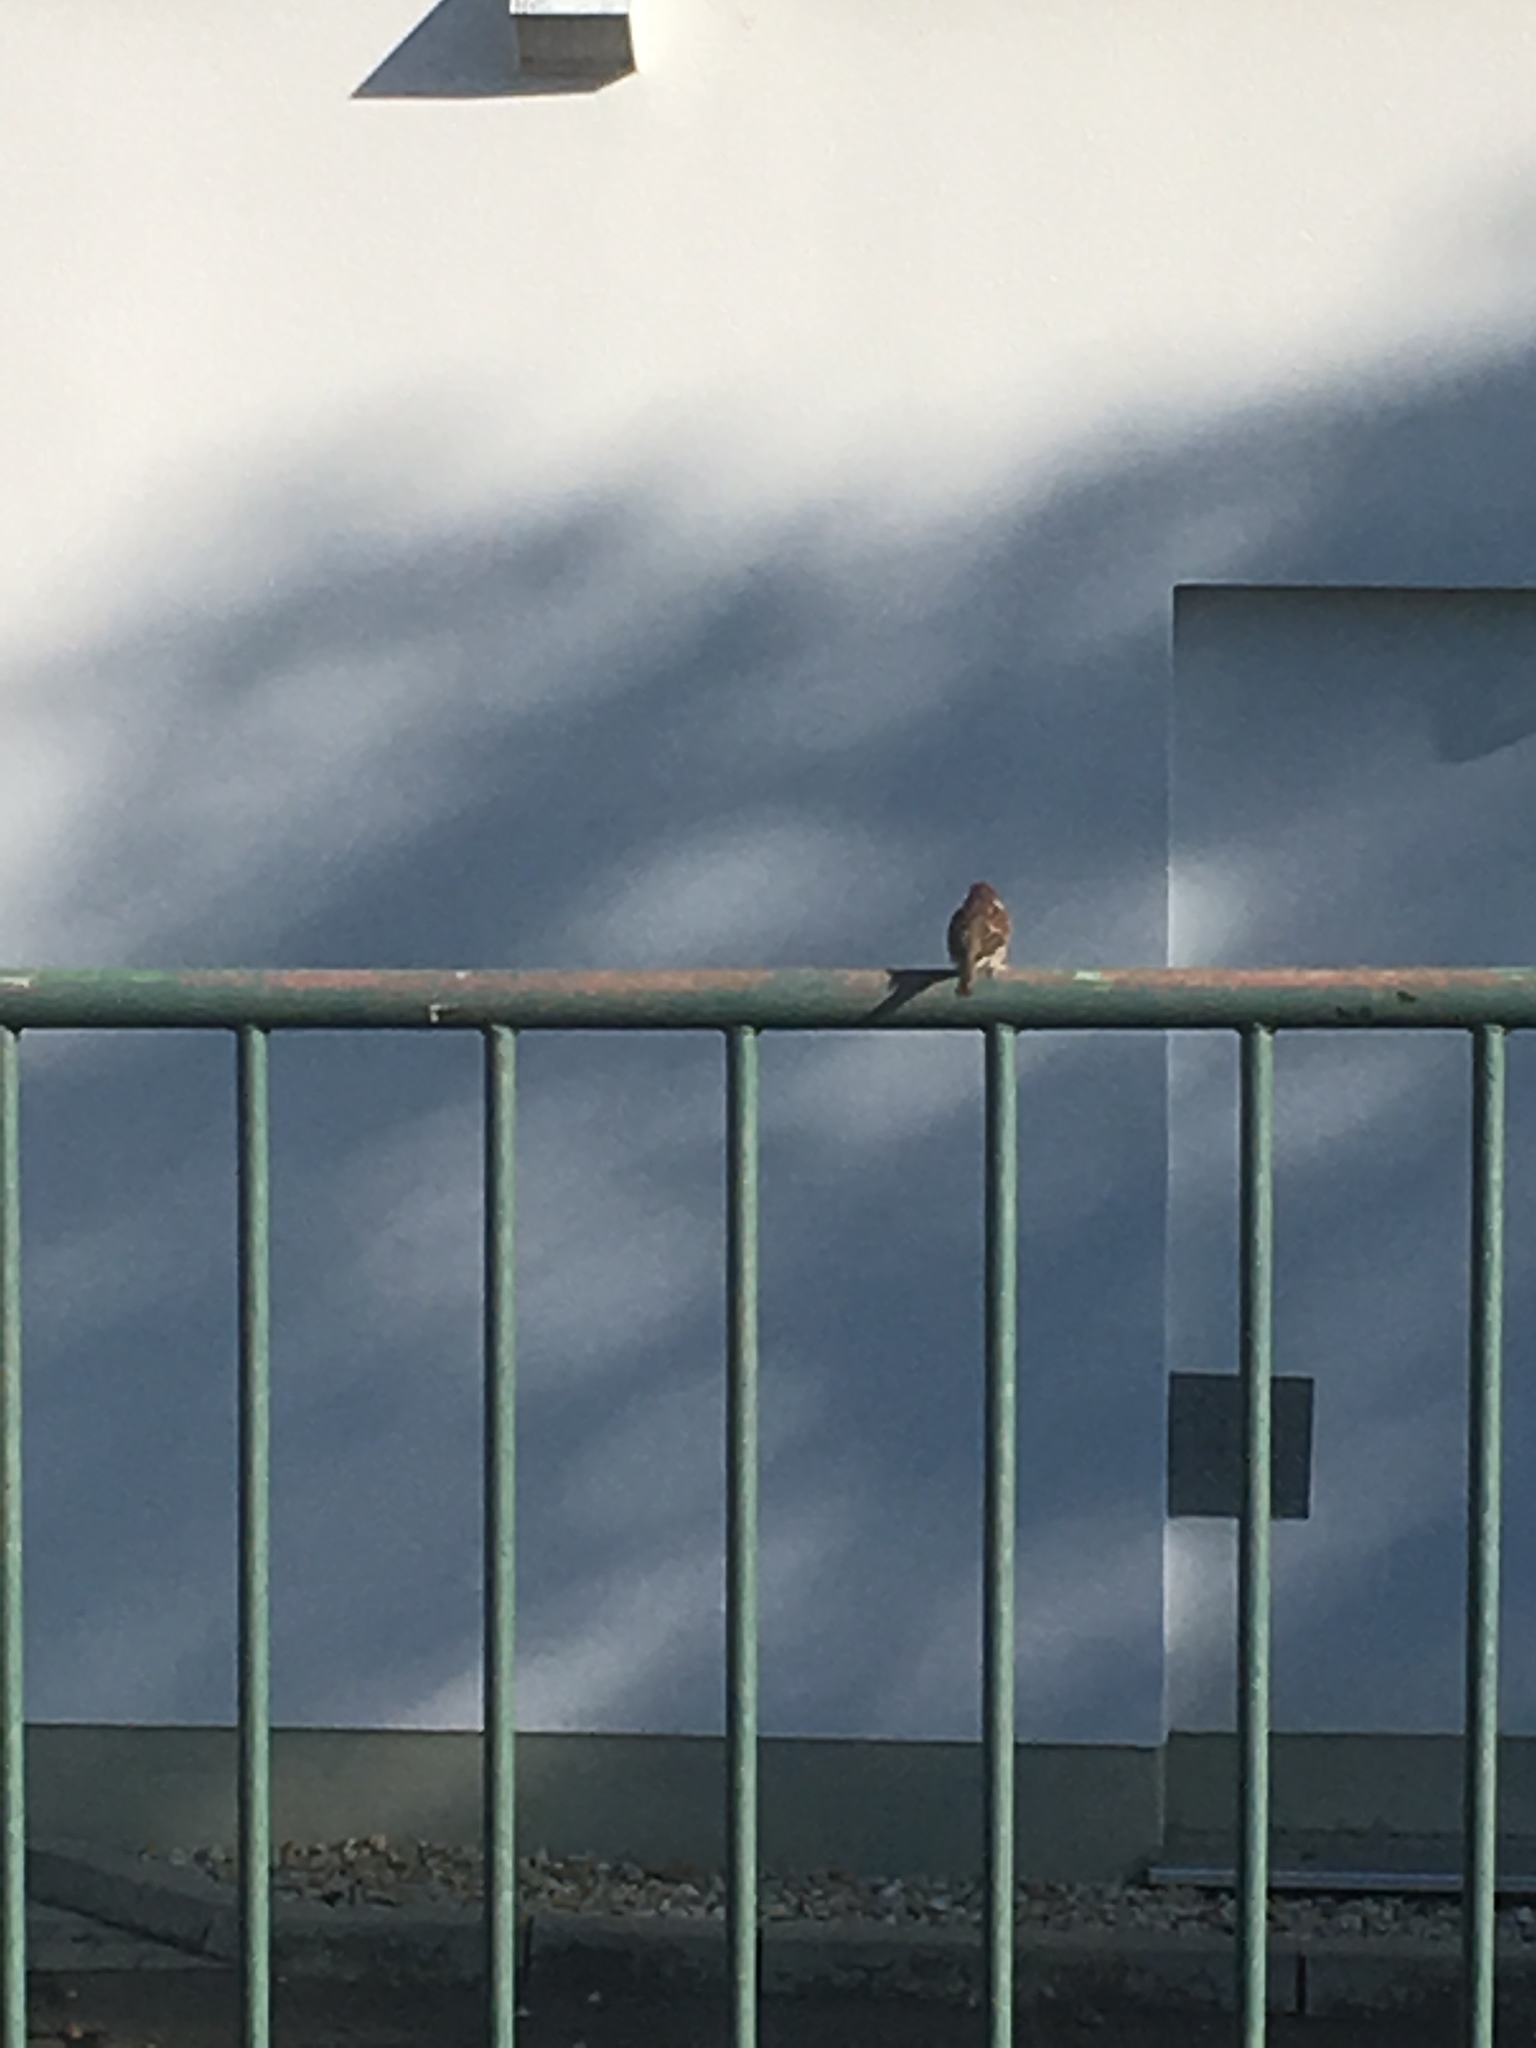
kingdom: Animalia
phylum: Chordata
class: Aves
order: Passeriformes
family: Passeridae
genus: Passer
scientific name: Passer montanus
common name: Eurasian tree sparrow
